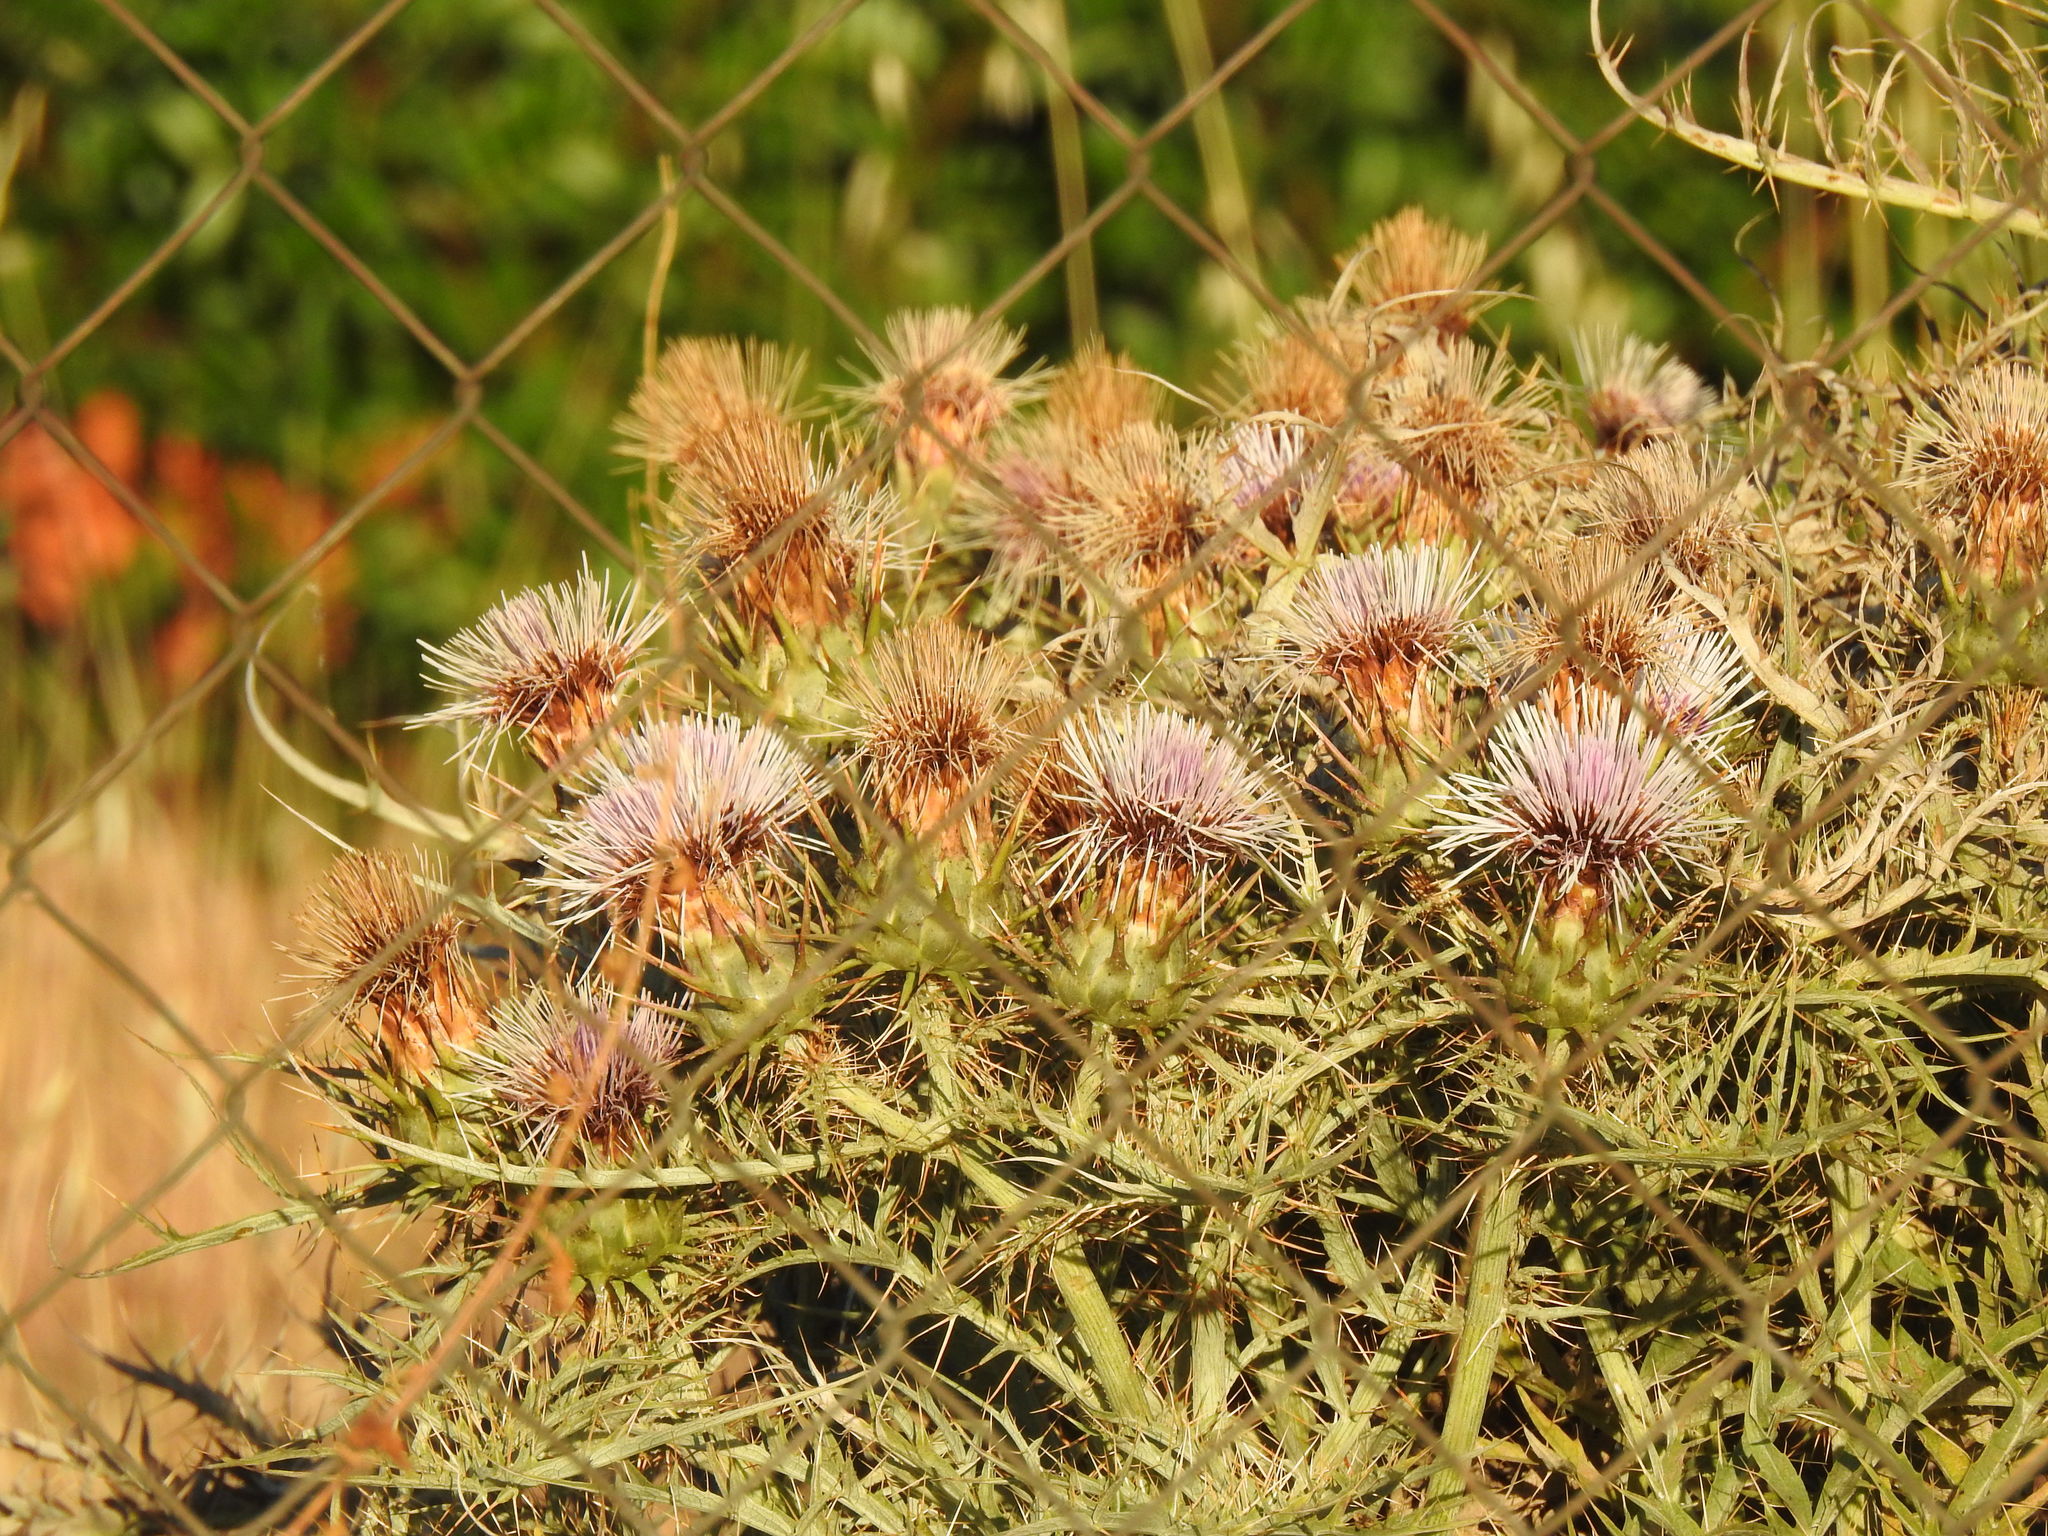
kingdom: Plantae
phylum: Tracheophyta
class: Magnoliopsida
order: Asterales
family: Asteraceae
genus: Cynara
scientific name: Cynara cardunculus
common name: Globe artichoke
